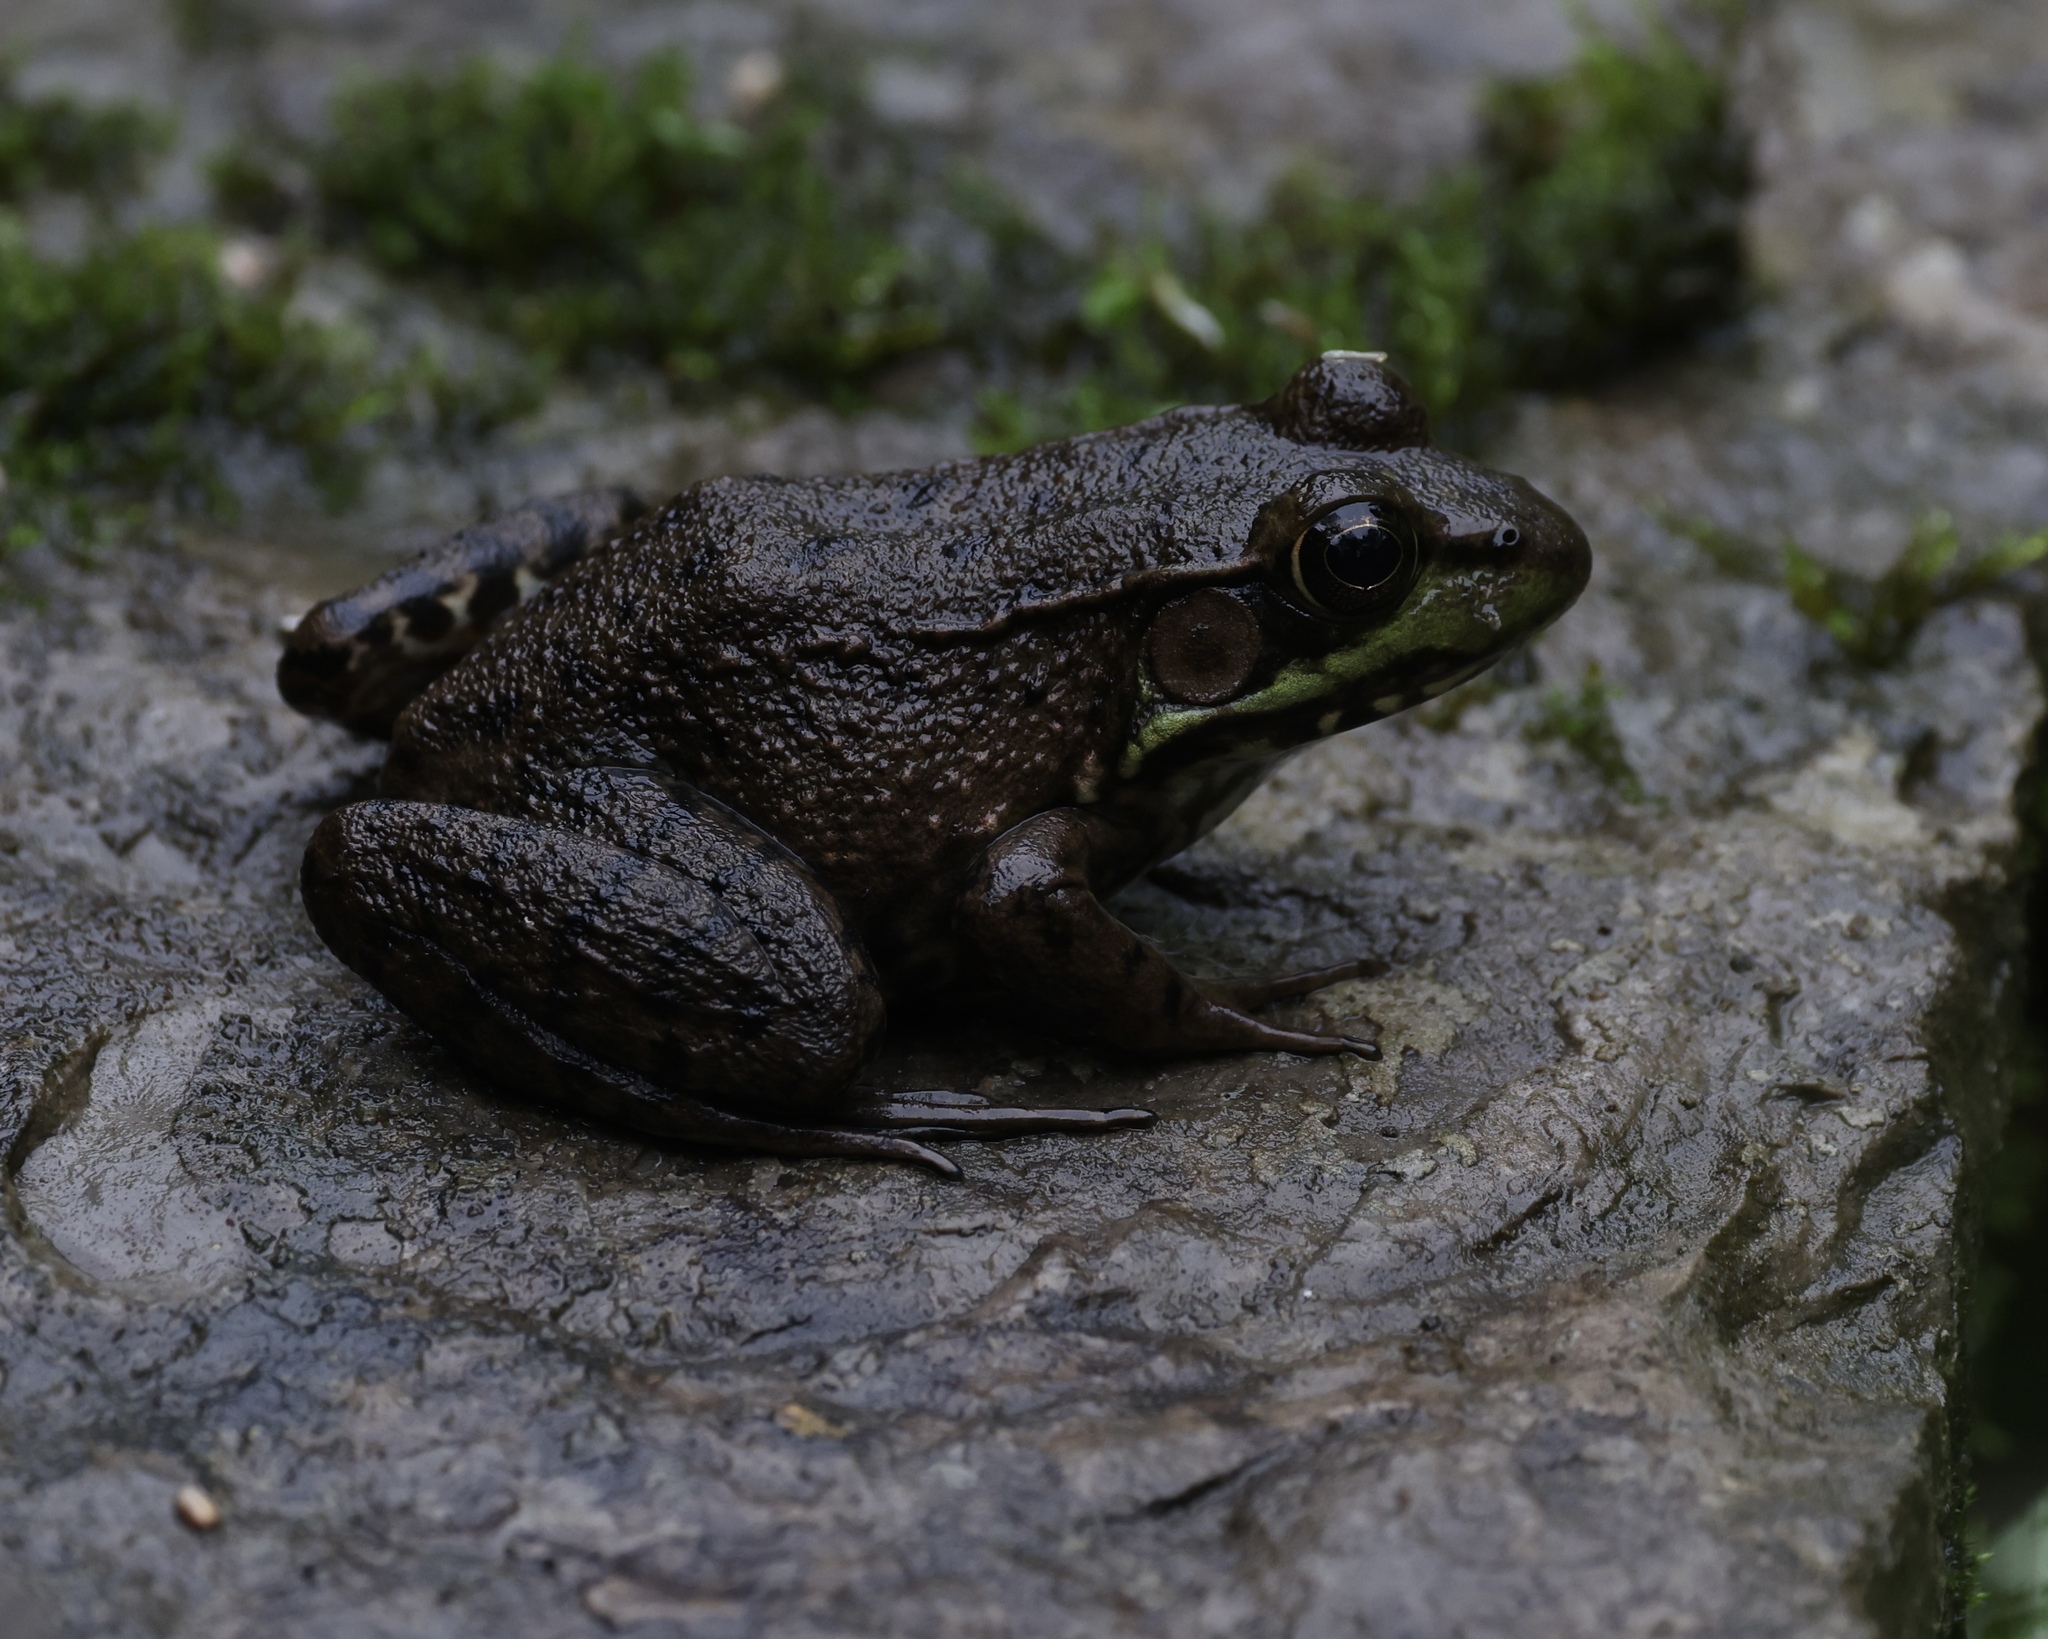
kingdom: Animalia
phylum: Chordata
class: Amphibia
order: Anura
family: Ranidae
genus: Lithobates
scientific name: Lithobates clamitans
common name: Green frog
